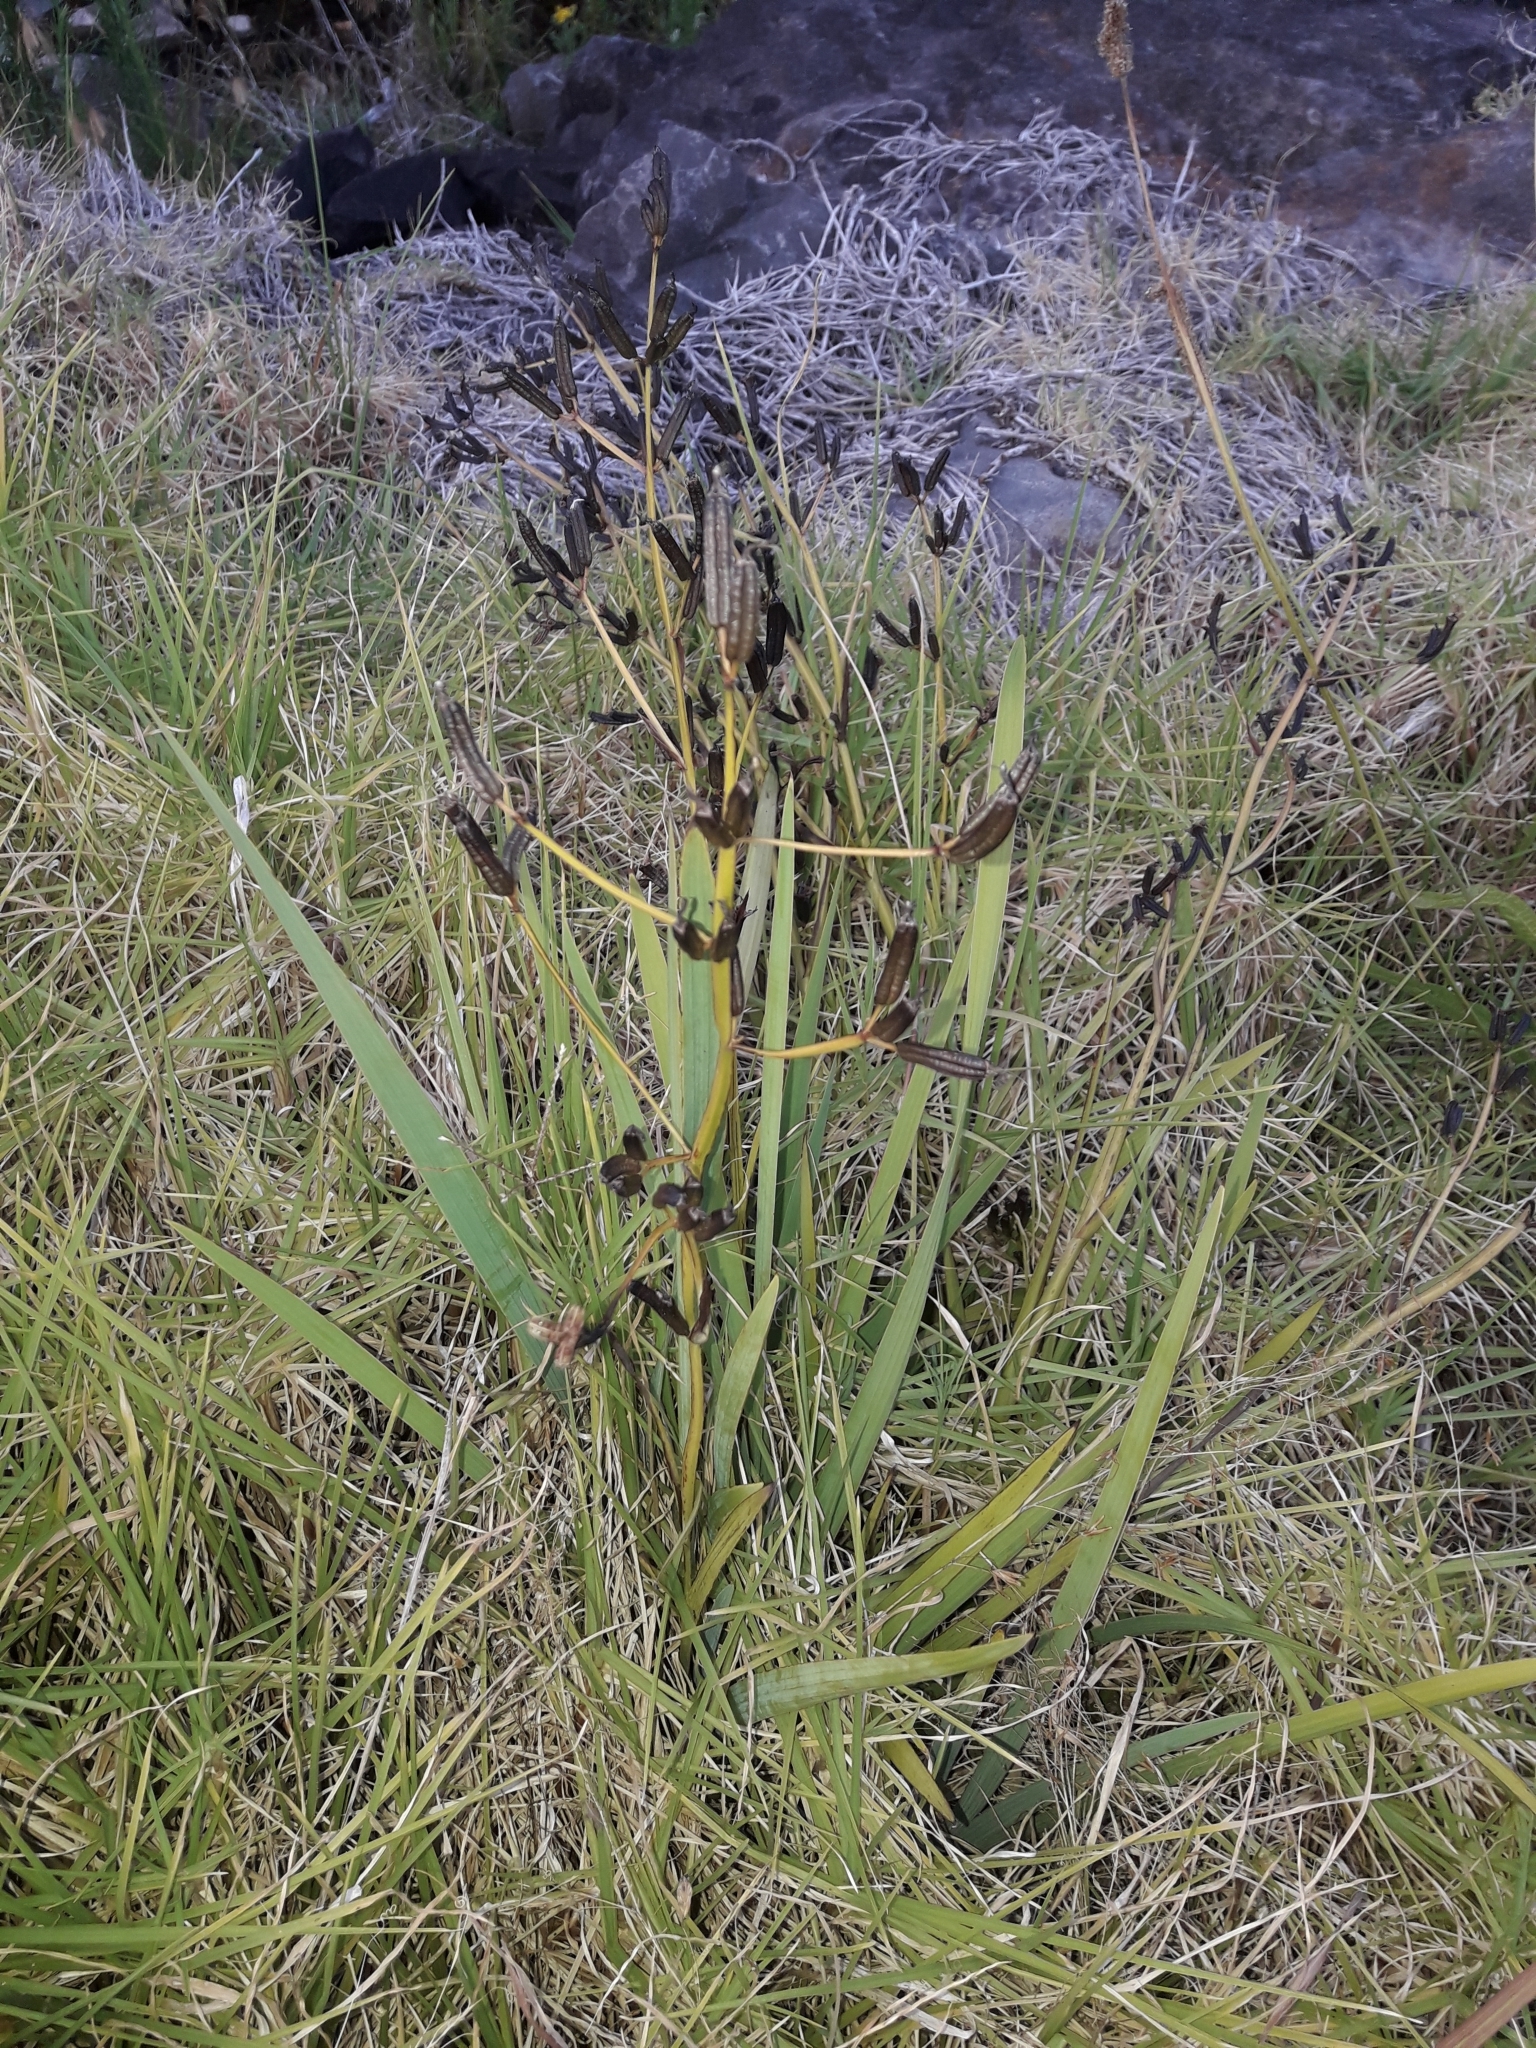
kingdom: Plantae
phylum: Tracheophyta
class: Liliopsida
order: Asparagales
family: Iridaceae
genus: Aristea
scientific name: Aristea ecklonii
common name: Blue corn-lily
